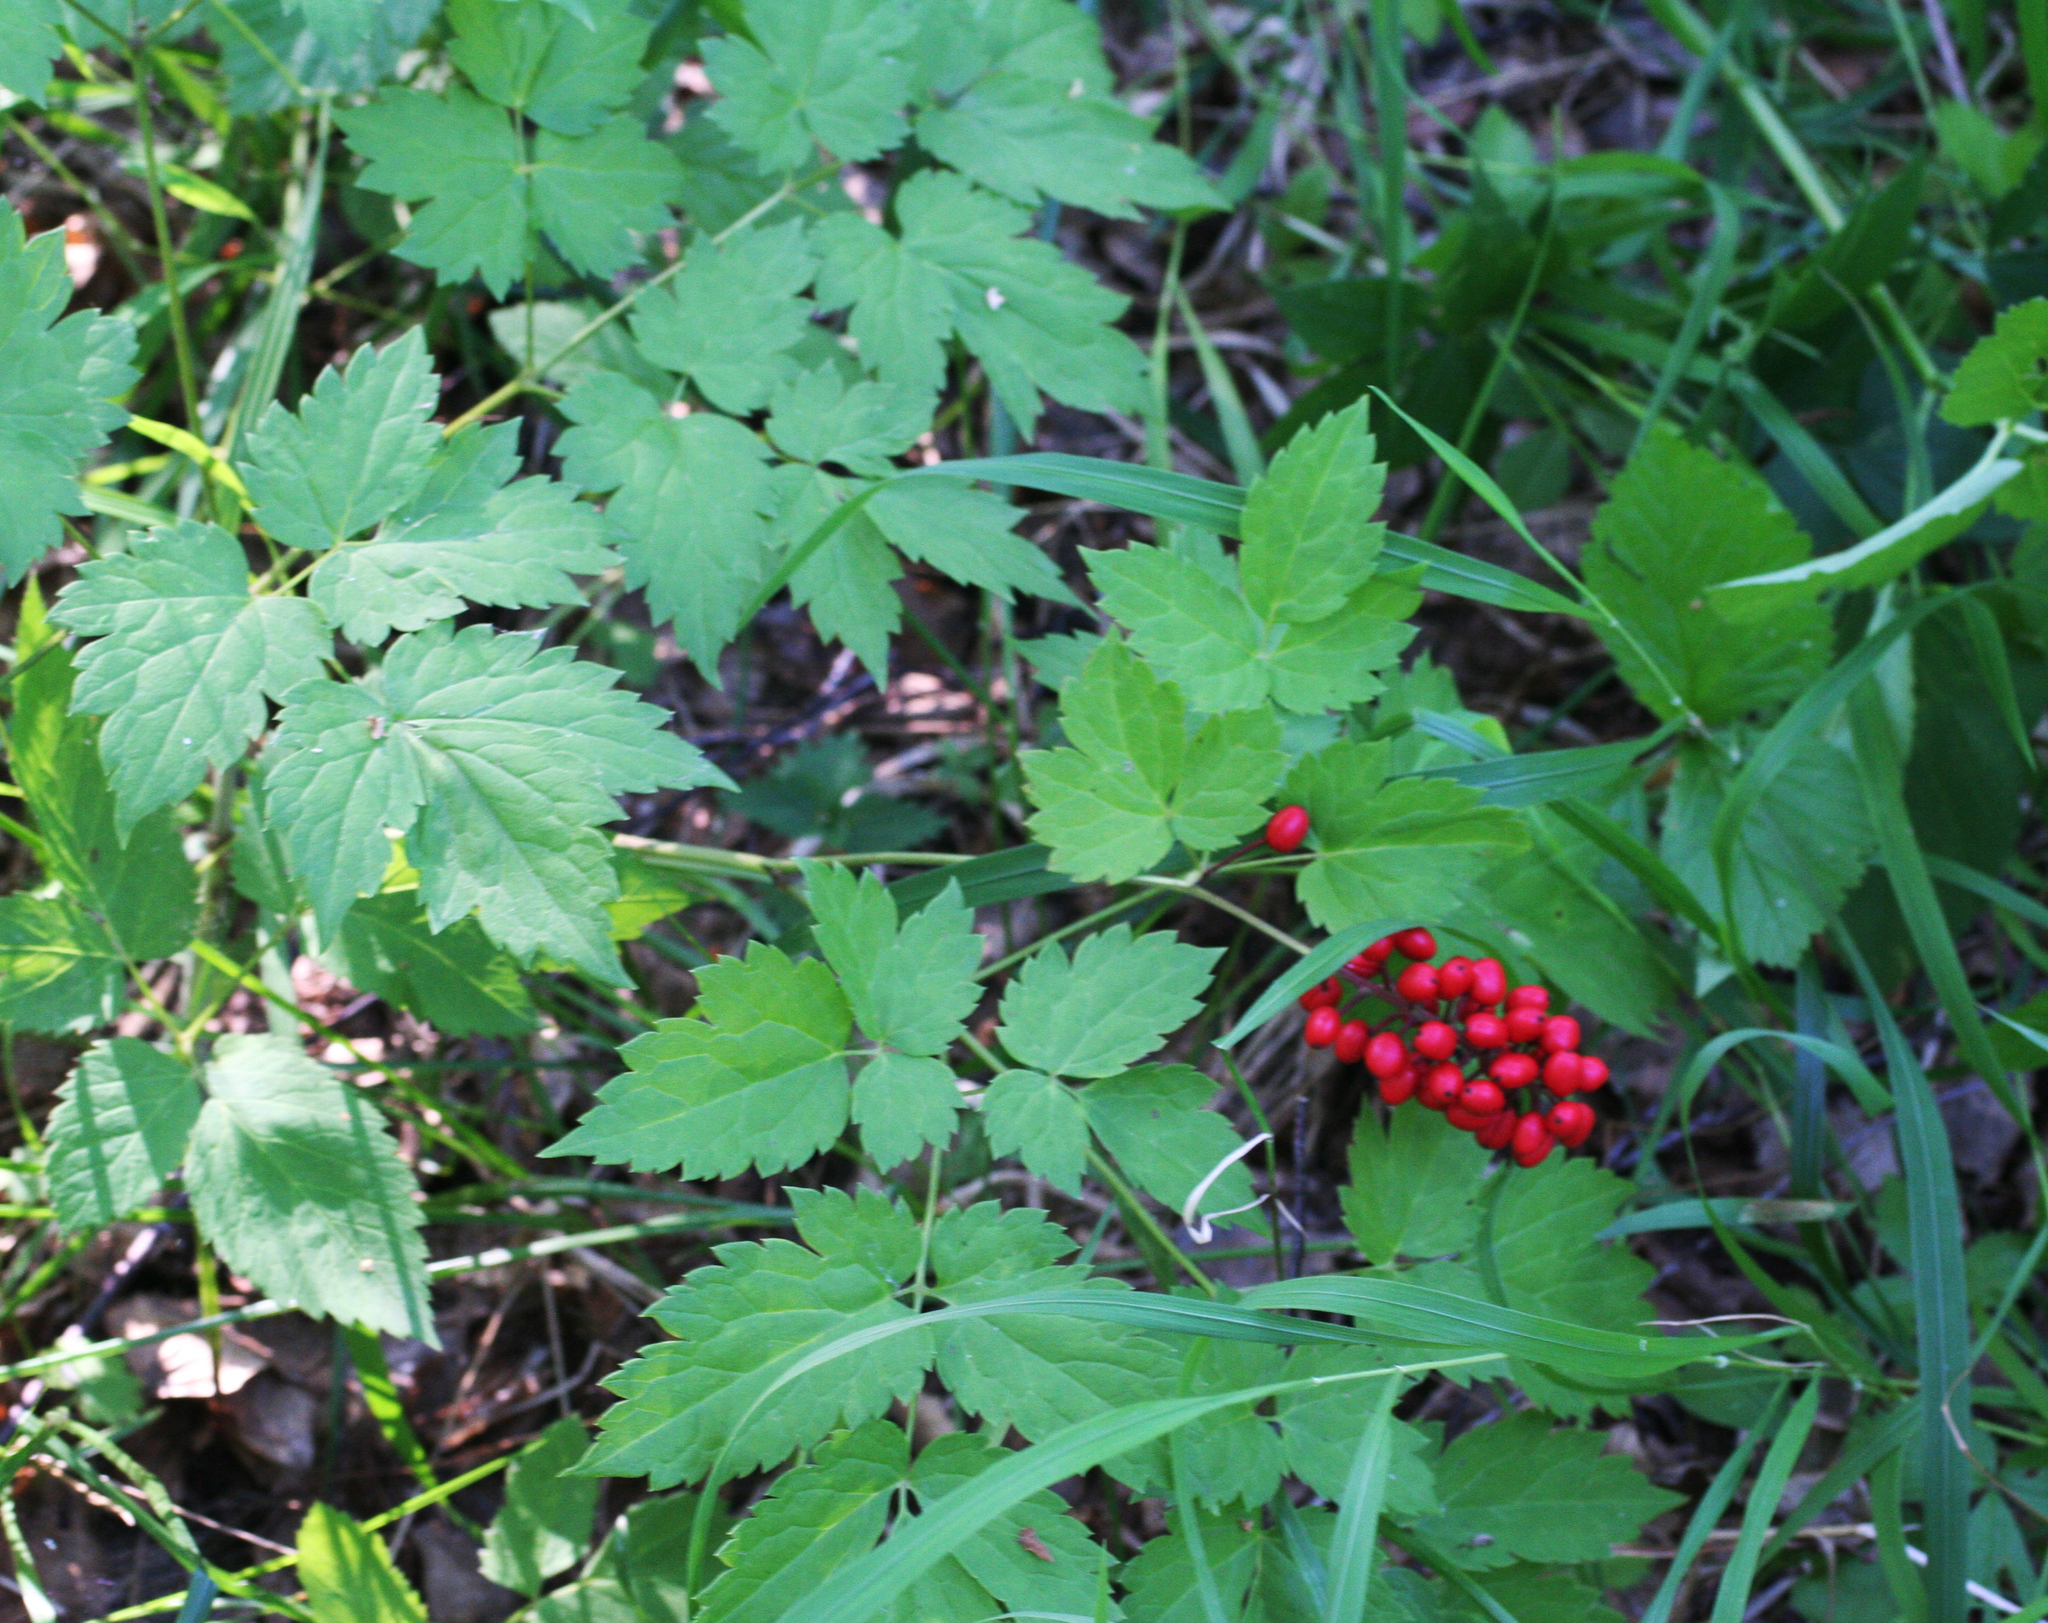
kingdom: Plantae
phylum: Tracheophyta
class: Magnoliopsida
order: Ranunculales
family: Ranunculaceae
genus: Actaea
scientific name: Actaea erythrocarpa
